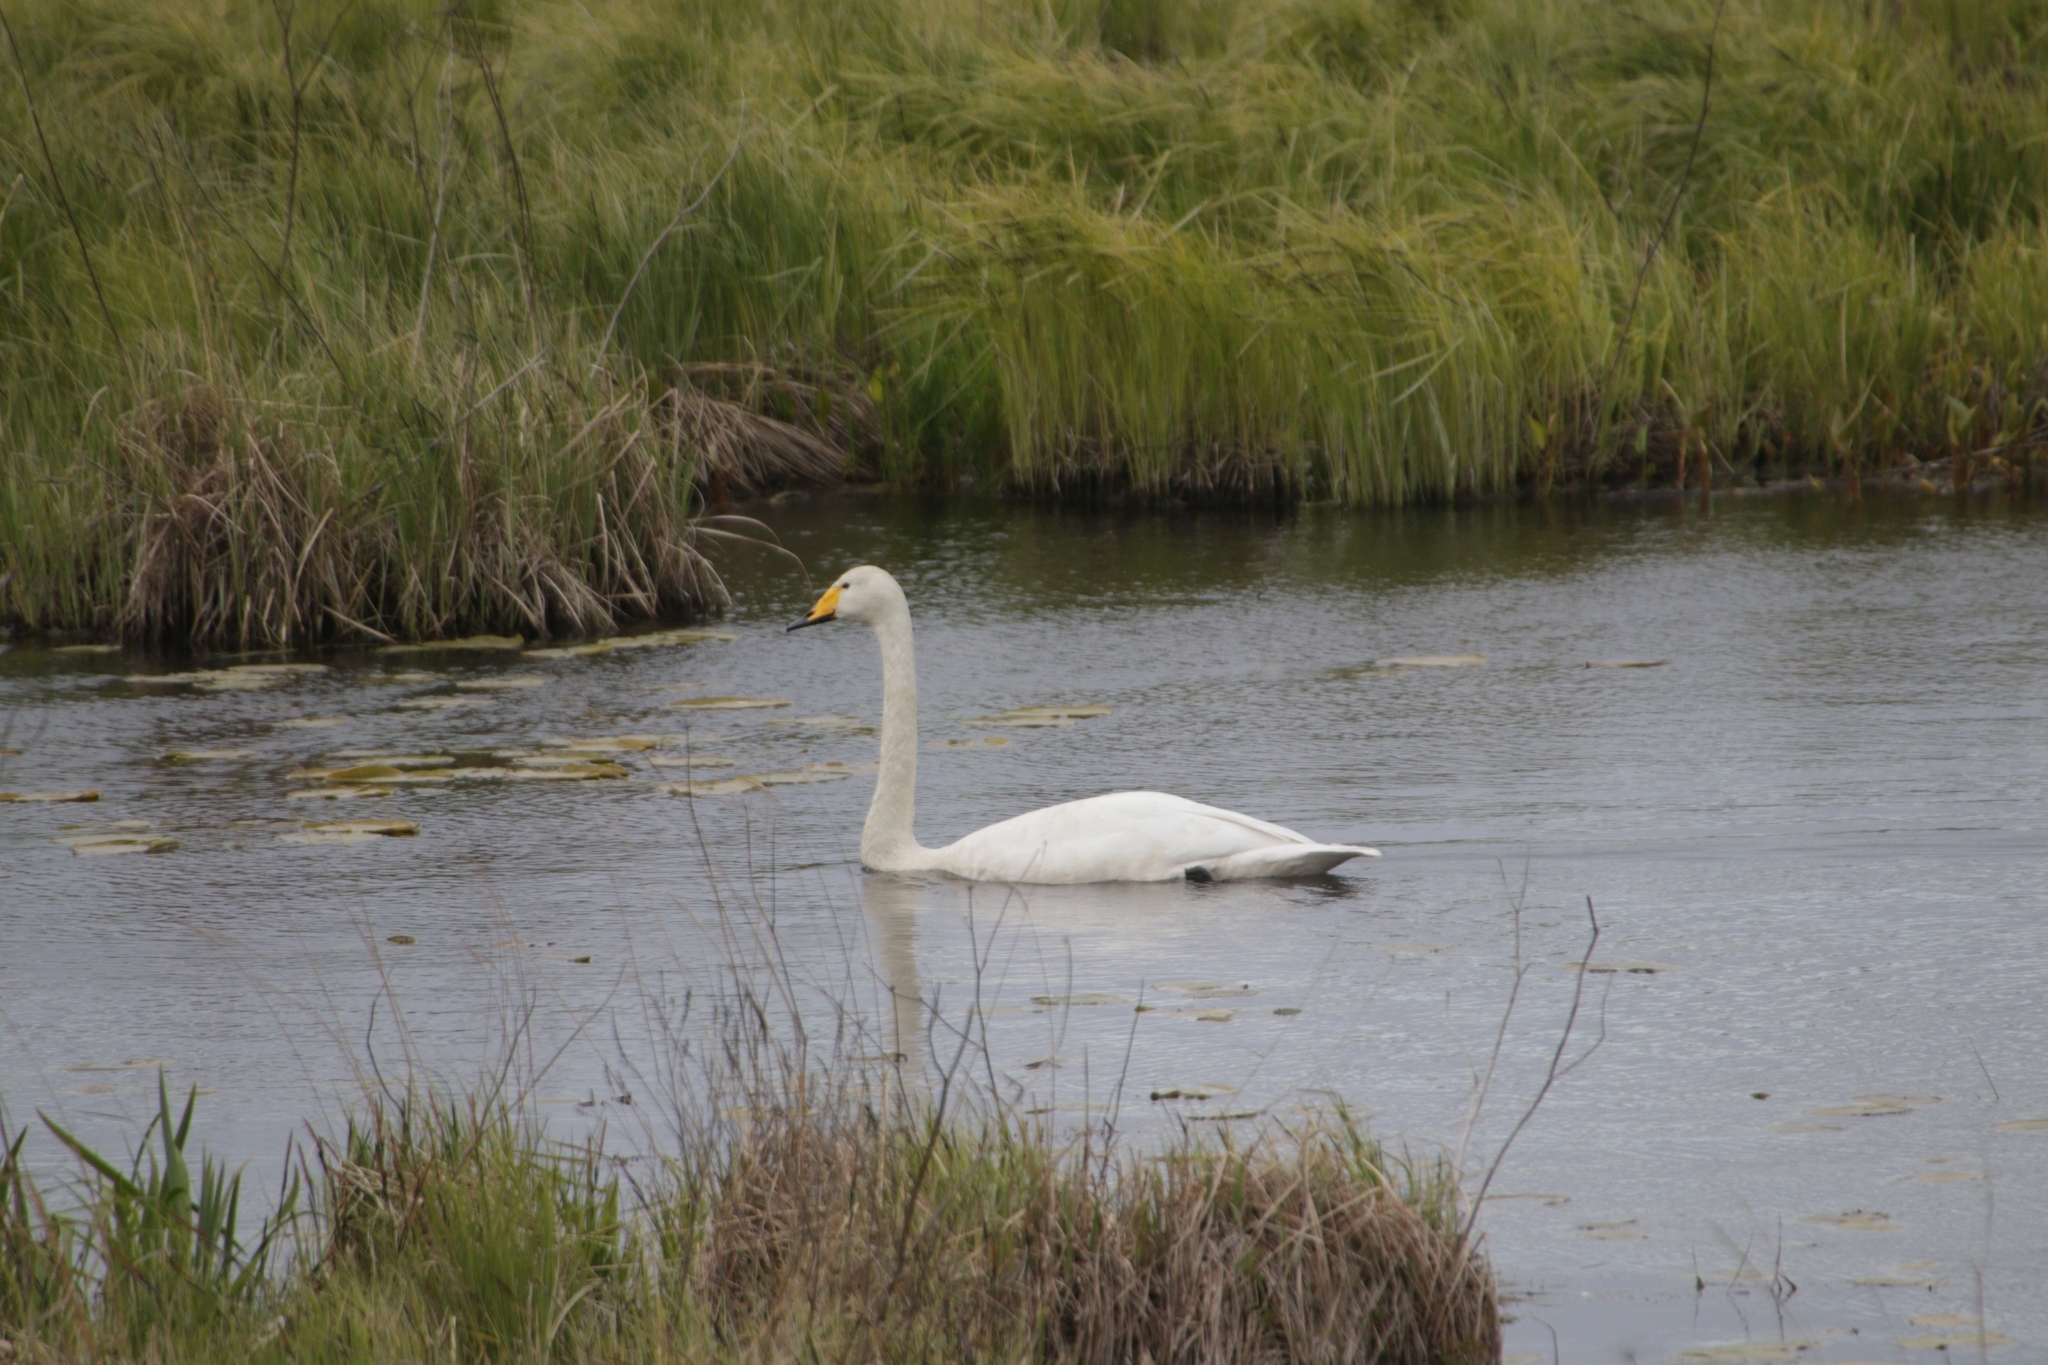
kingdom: Animalia
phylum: Chordata
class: Aves
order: Anseriformes
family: Anatidae
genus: Cygnus
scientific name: Cygnus cygnus
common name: Whooper swan
